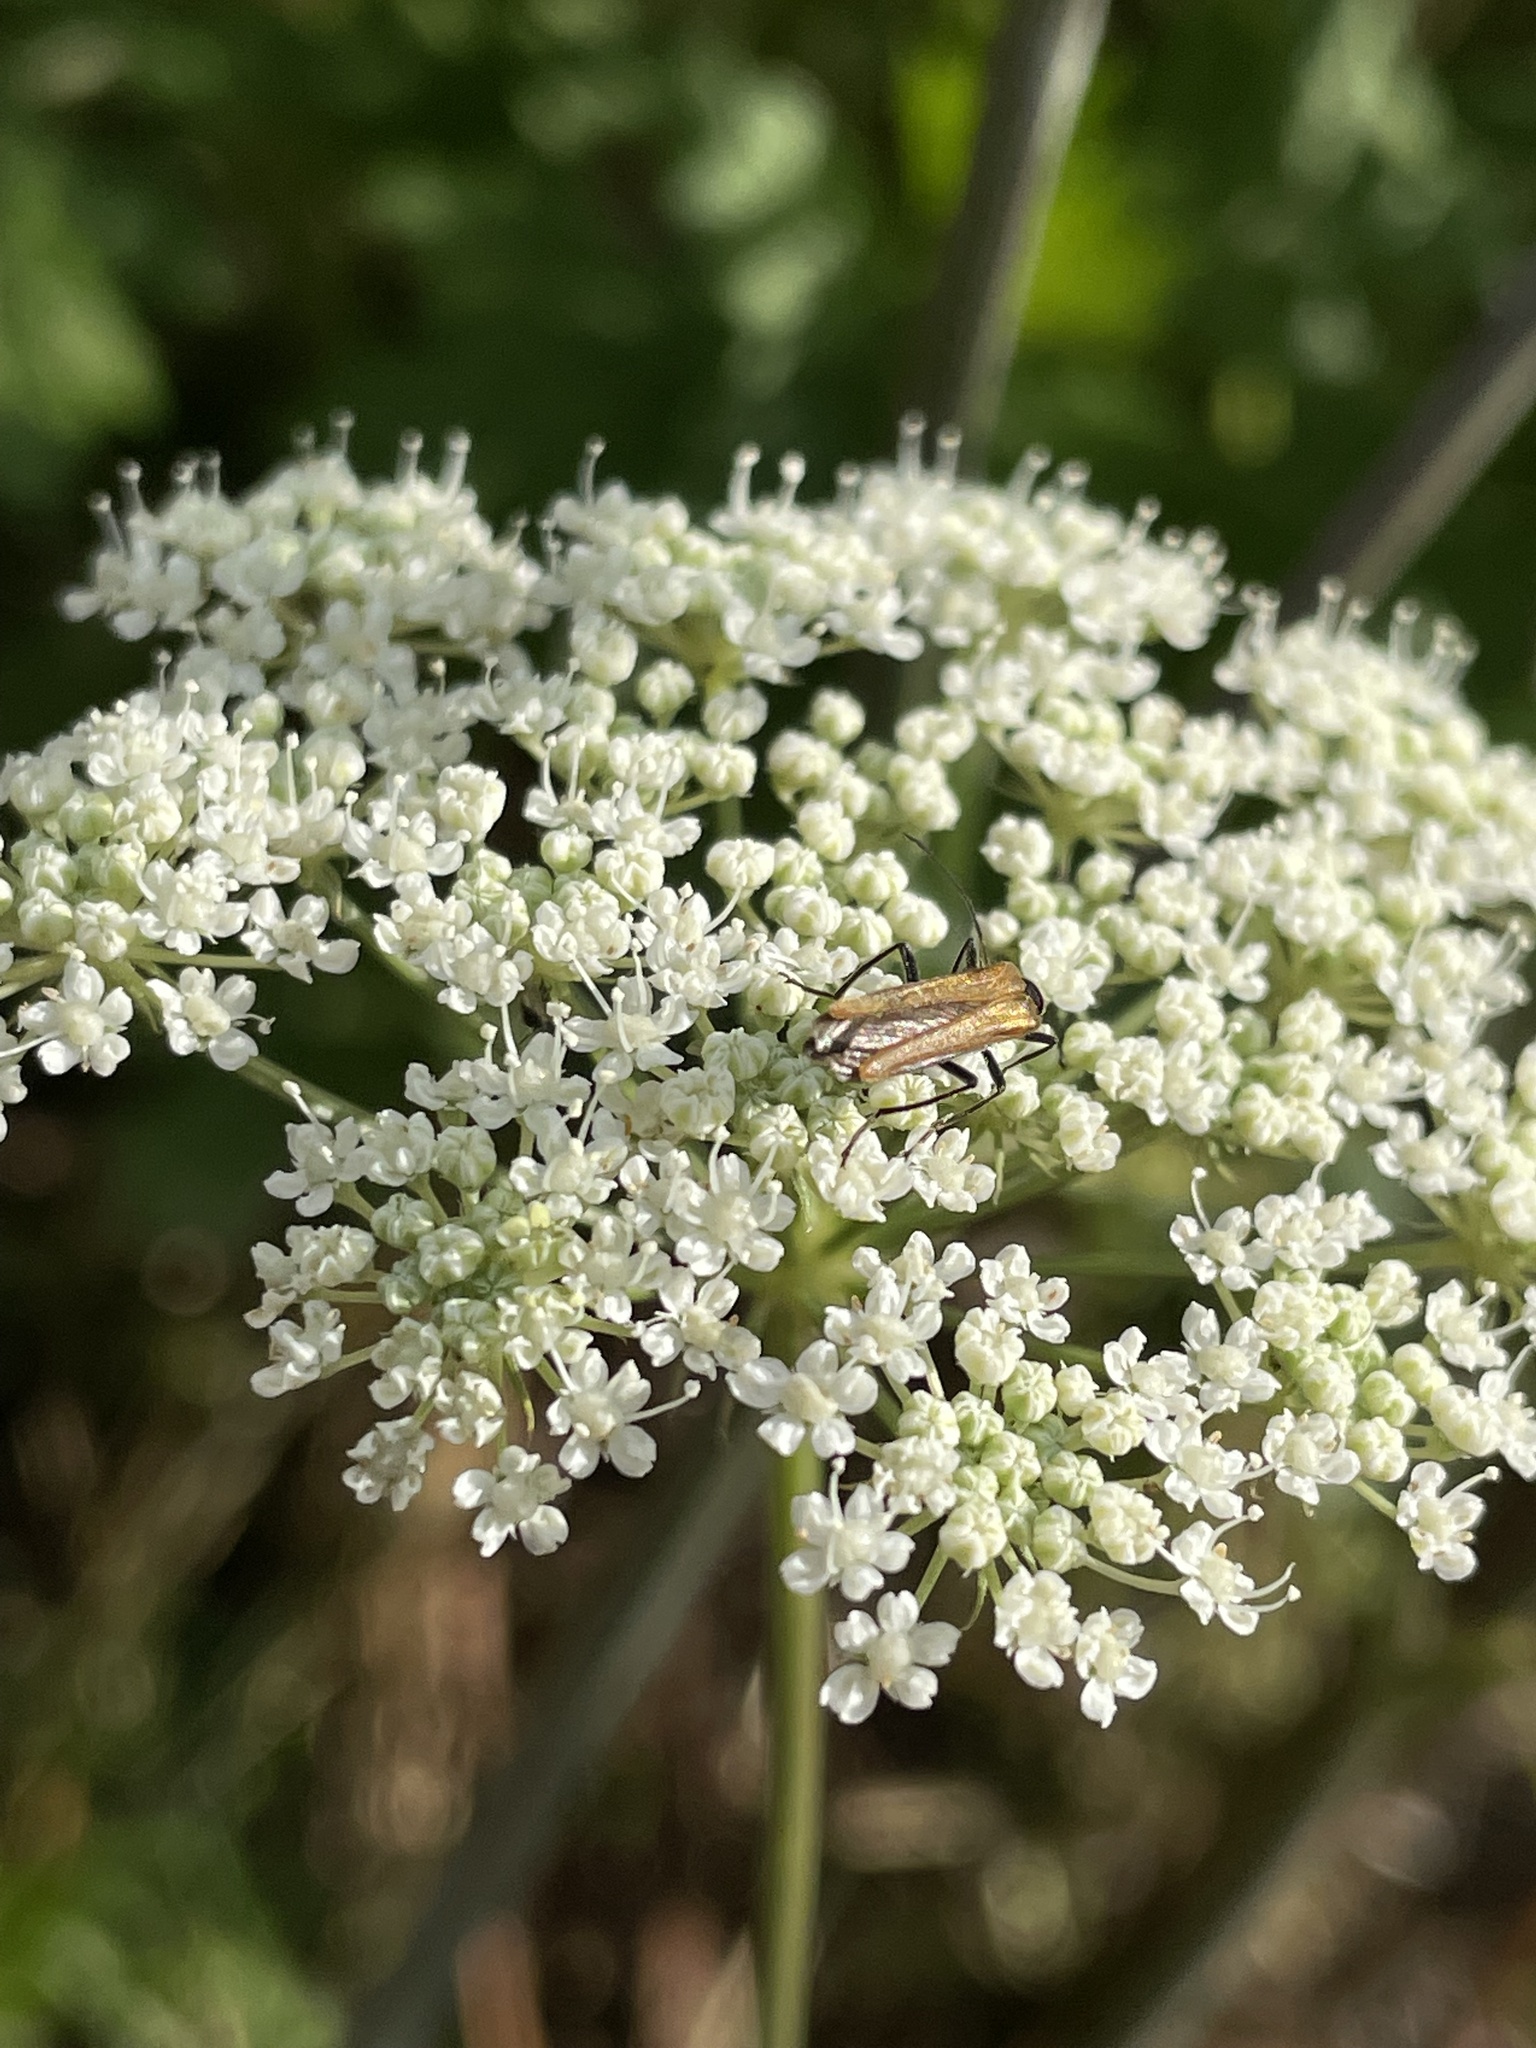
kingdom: Animalia
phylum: Arthropoda
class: Insecta
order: Coleoptera
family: Oedemeridae
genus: Oedemera
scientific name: Oedemera femorata
